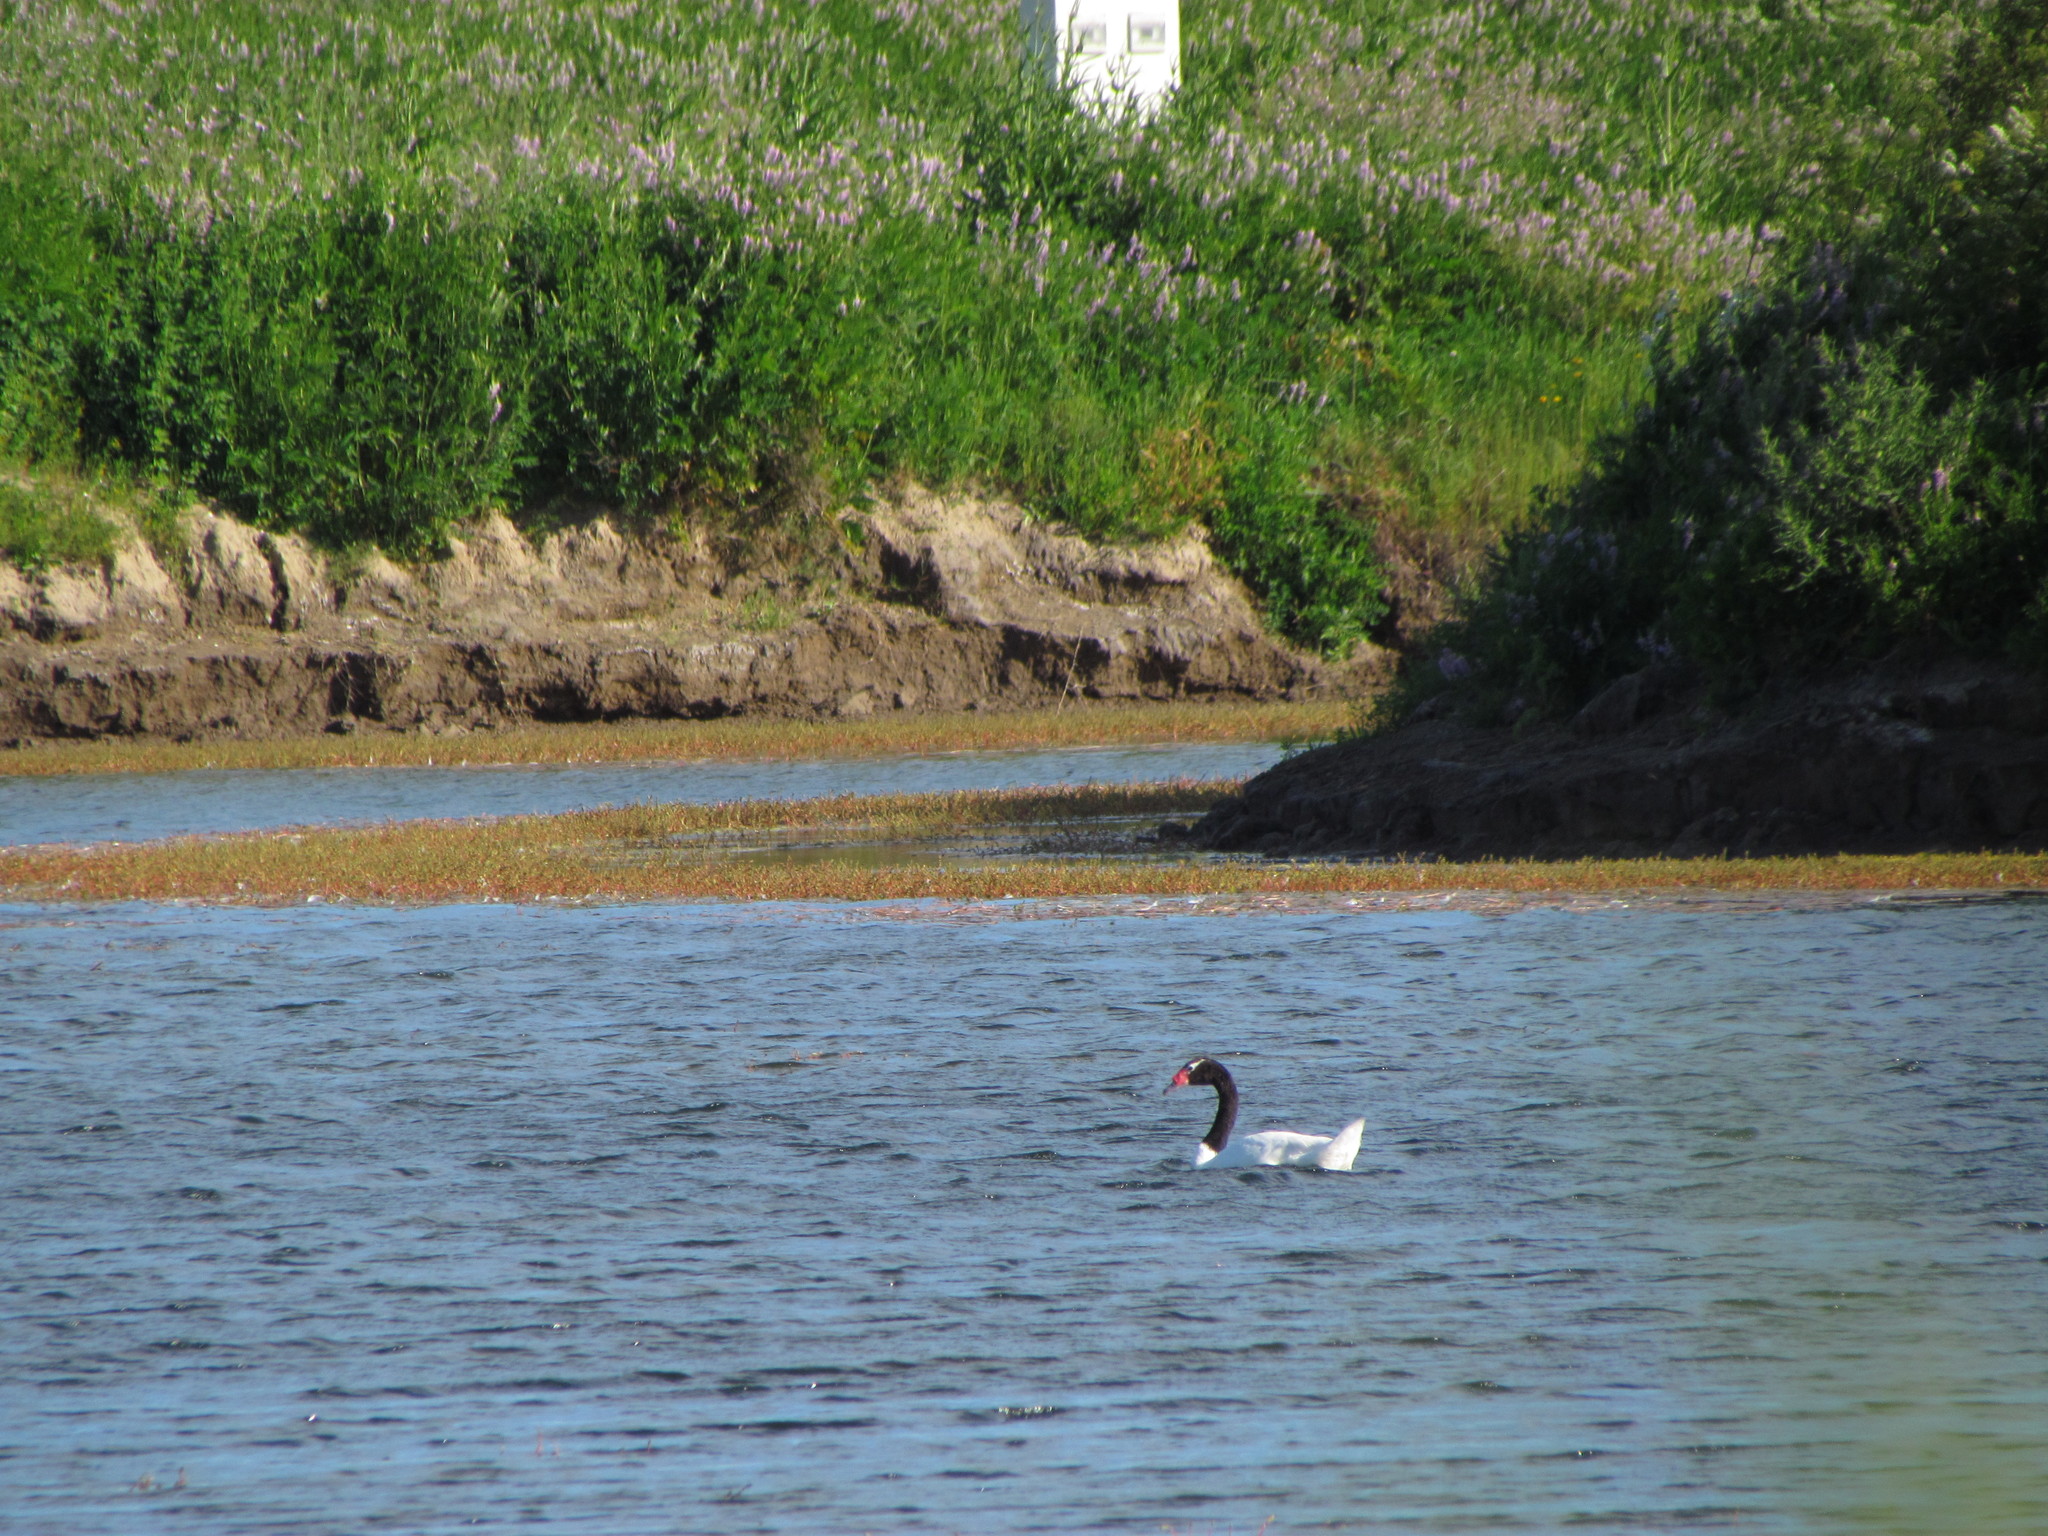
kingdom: Animalia
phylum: Chordata
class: Aves
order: Anseriformes
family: Anatidae
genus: Cygnus
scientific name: Cygnus melancoryphus
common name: Black-necked swan
